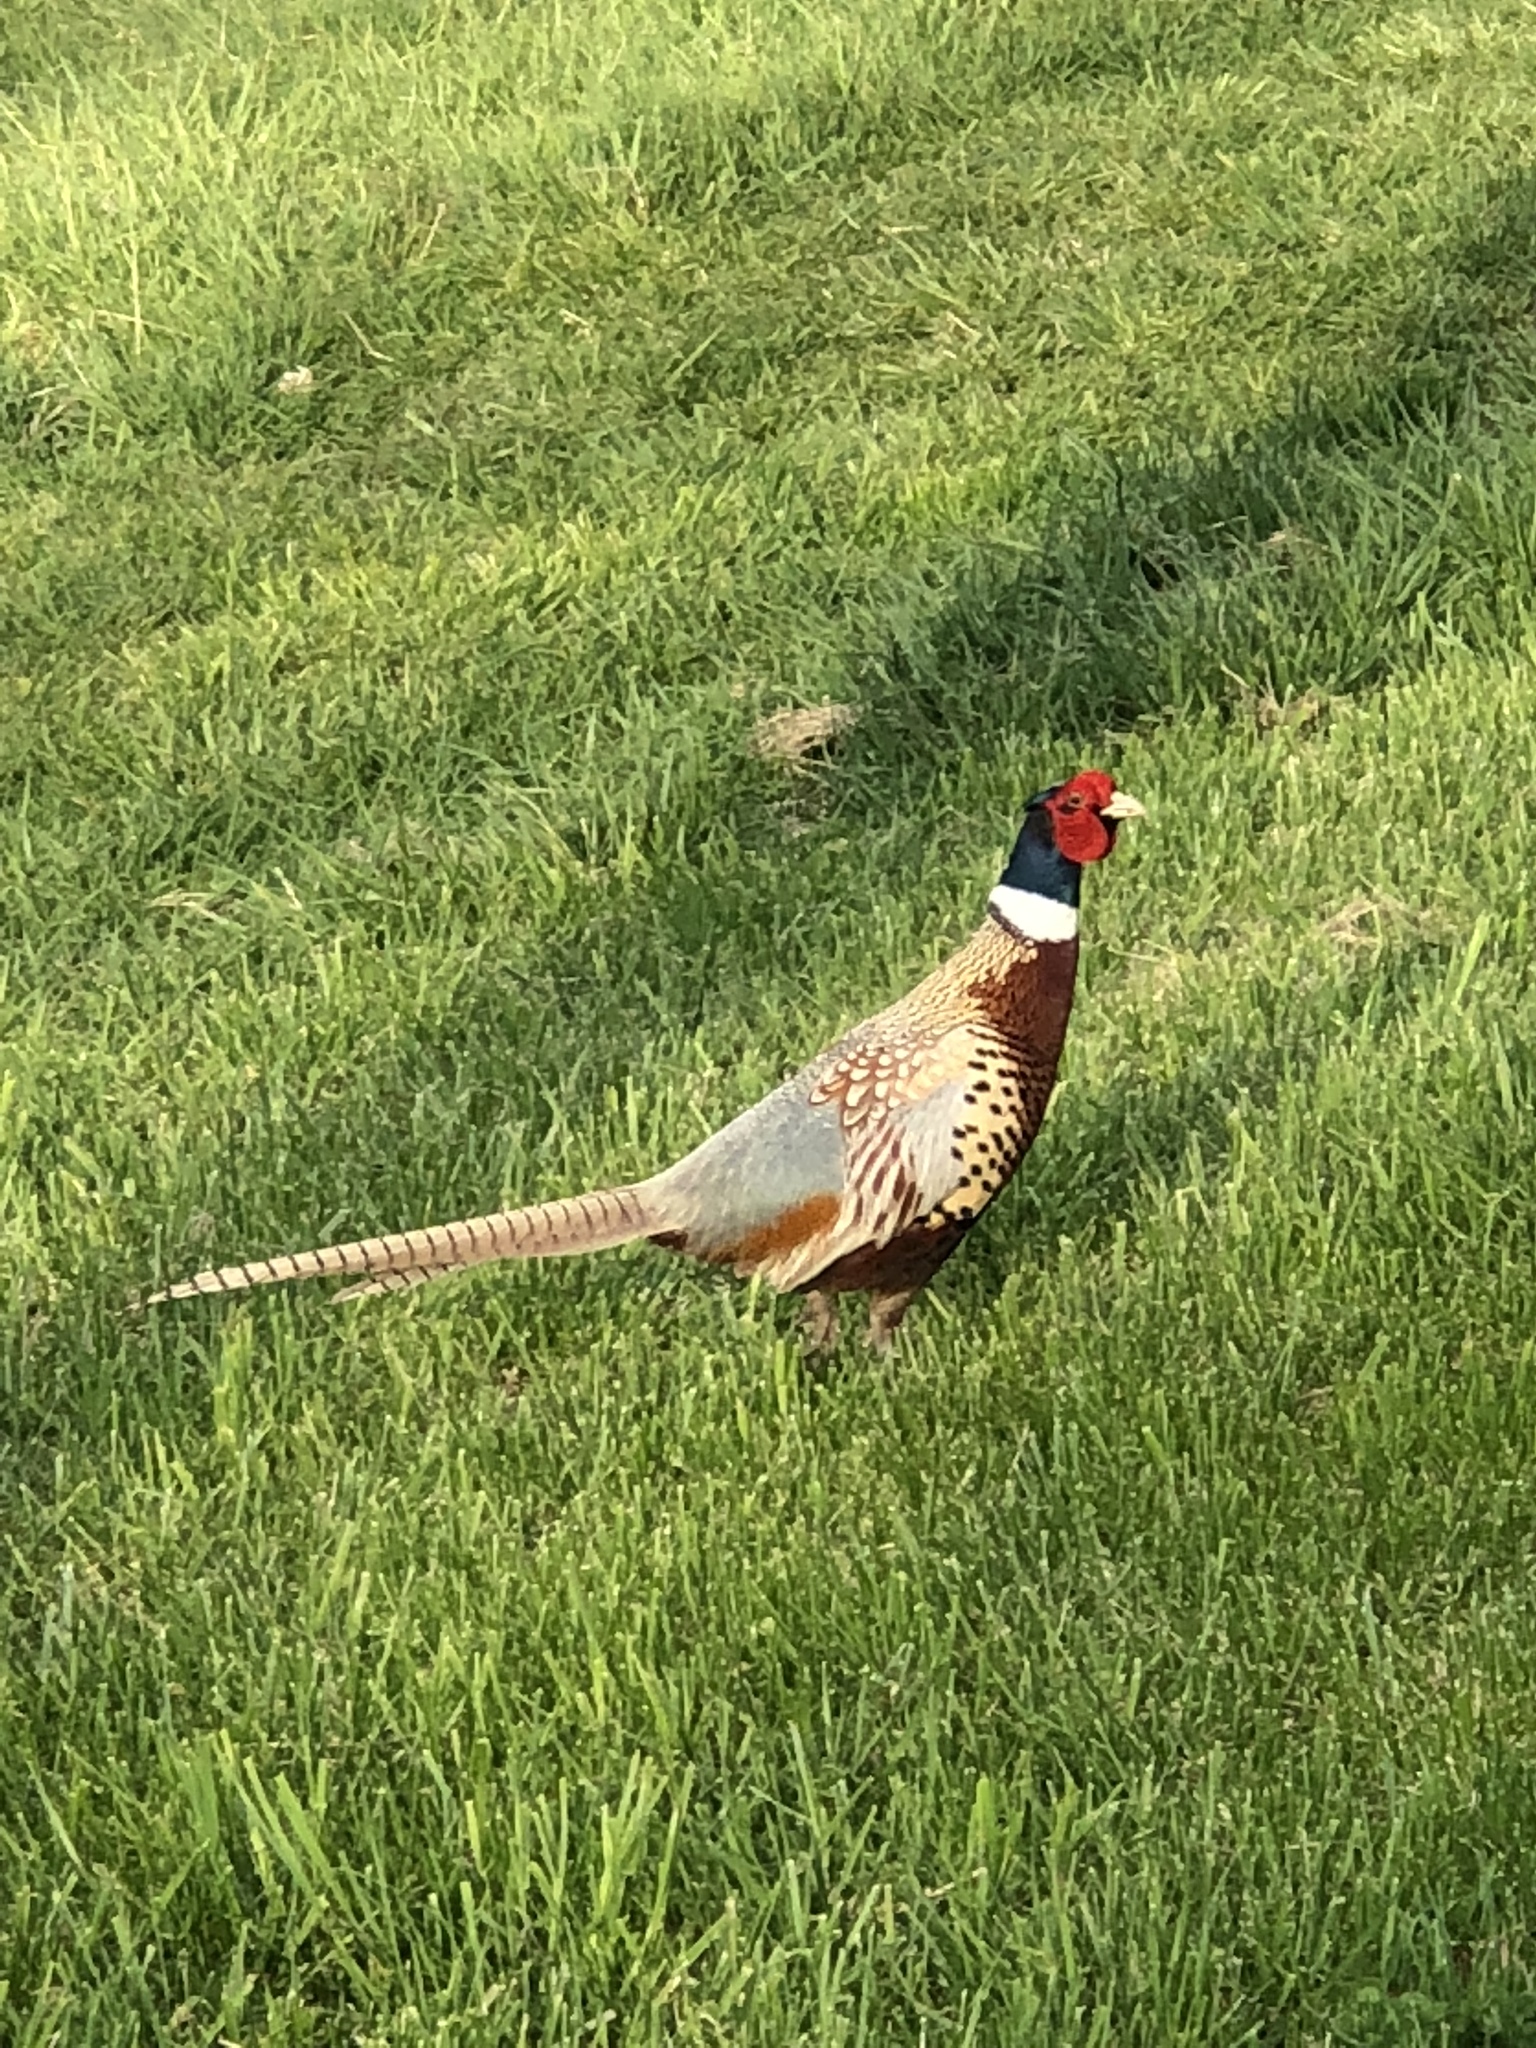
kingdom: Animalia
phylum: Chordata
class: Aves
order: Galliformes
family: Phasianidae
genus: Phasianus
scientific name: Phasianus colchicus
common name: Common pheasant
